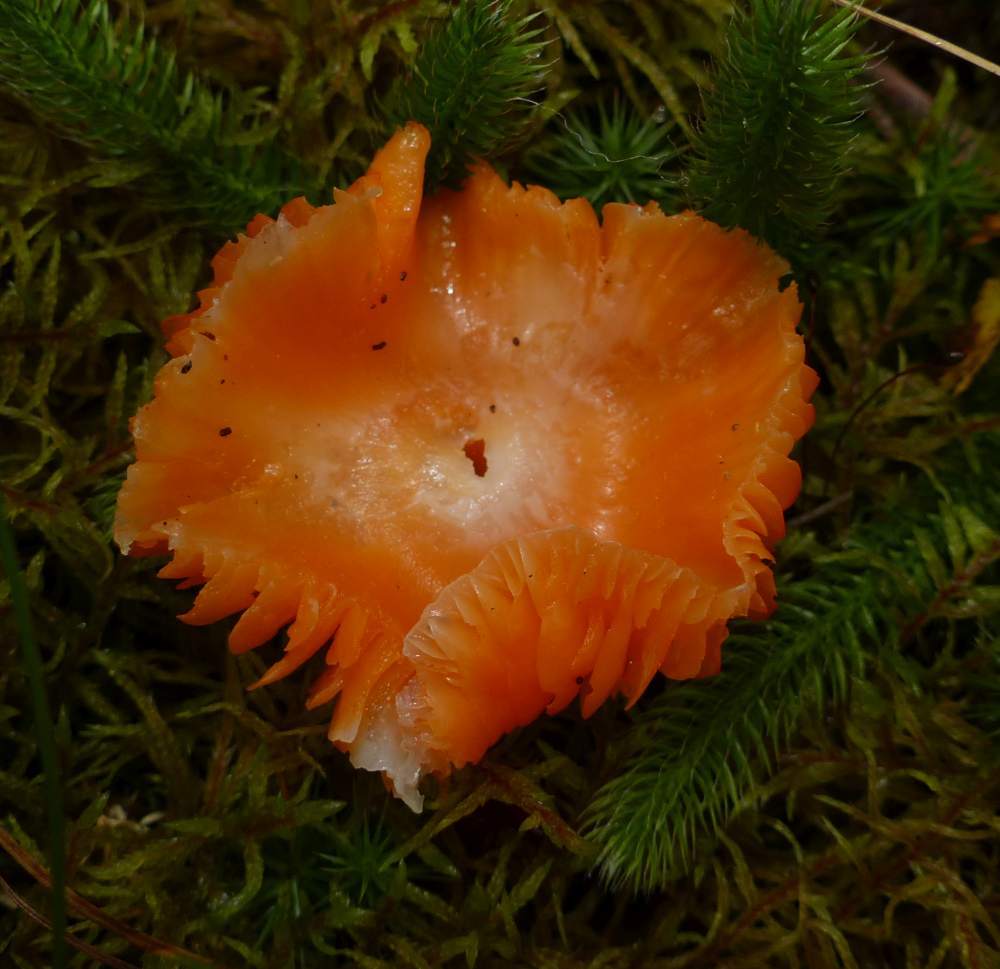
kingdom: Fungi
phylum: Basidiomycota
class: Agaricomycetes
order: Agaricales
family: Hygrophoraceae
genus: Humidicutis
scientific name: Humidicutis marginata
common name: Orange gilled waxcap
